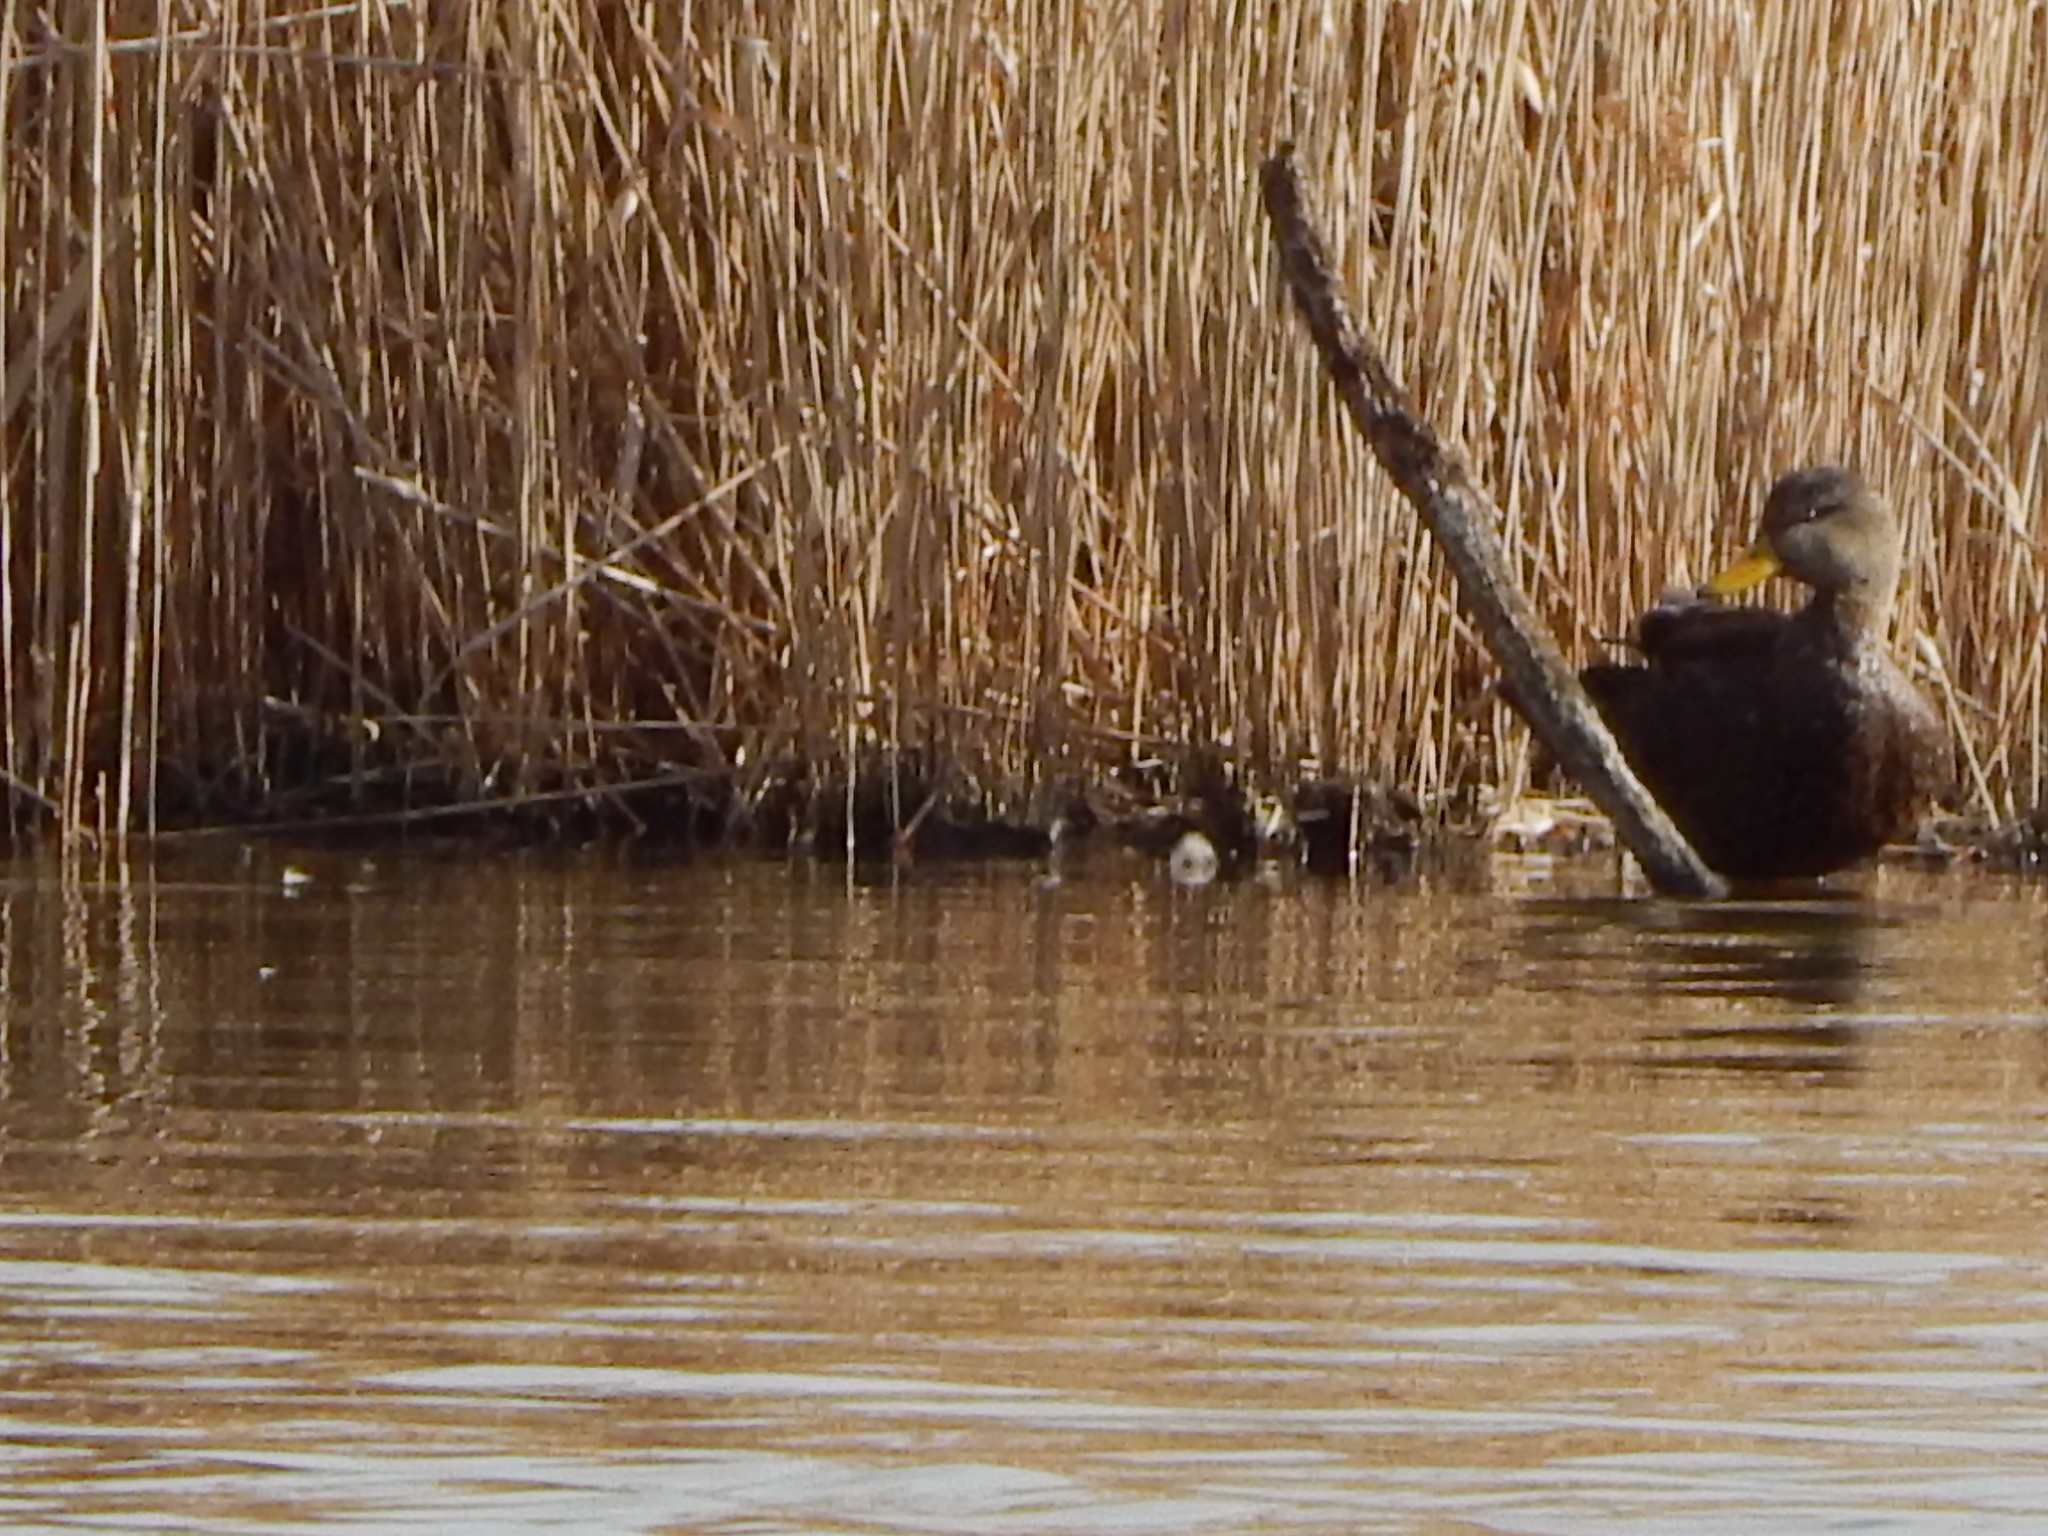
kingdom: Animalia
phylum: Chordata
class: Aves
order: Anseriformes
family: Anatidae
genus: Anas
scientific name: Anas rubripes
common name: American black duck
